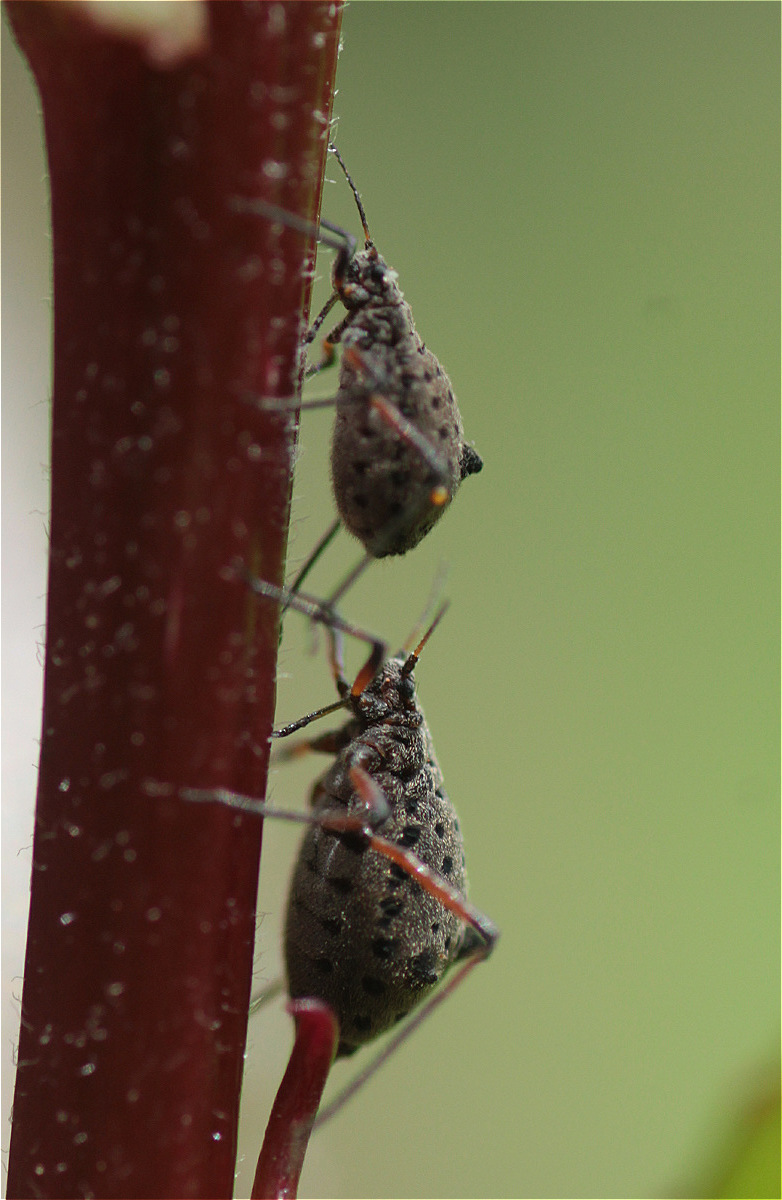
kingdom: Animalia
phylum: Arthropoda
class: Insecta
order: Hemiptera
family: Aphididae
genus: Tuberolachnus
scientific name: Tuberolachnus salignus
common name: Giant willow aphid
